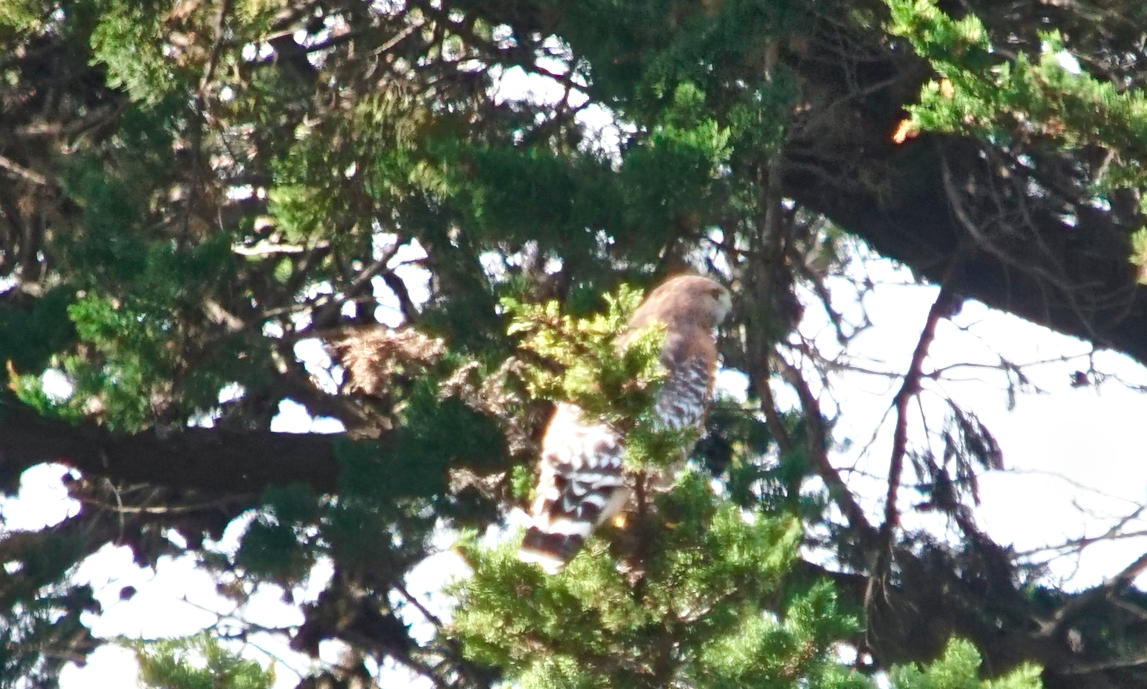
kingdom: Animalia
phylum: Chordata
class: Aves
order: Accipitriformes
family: Accipitridae
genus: Buteo
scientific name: Buteo lineatus
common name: Red-shouldered hawk
